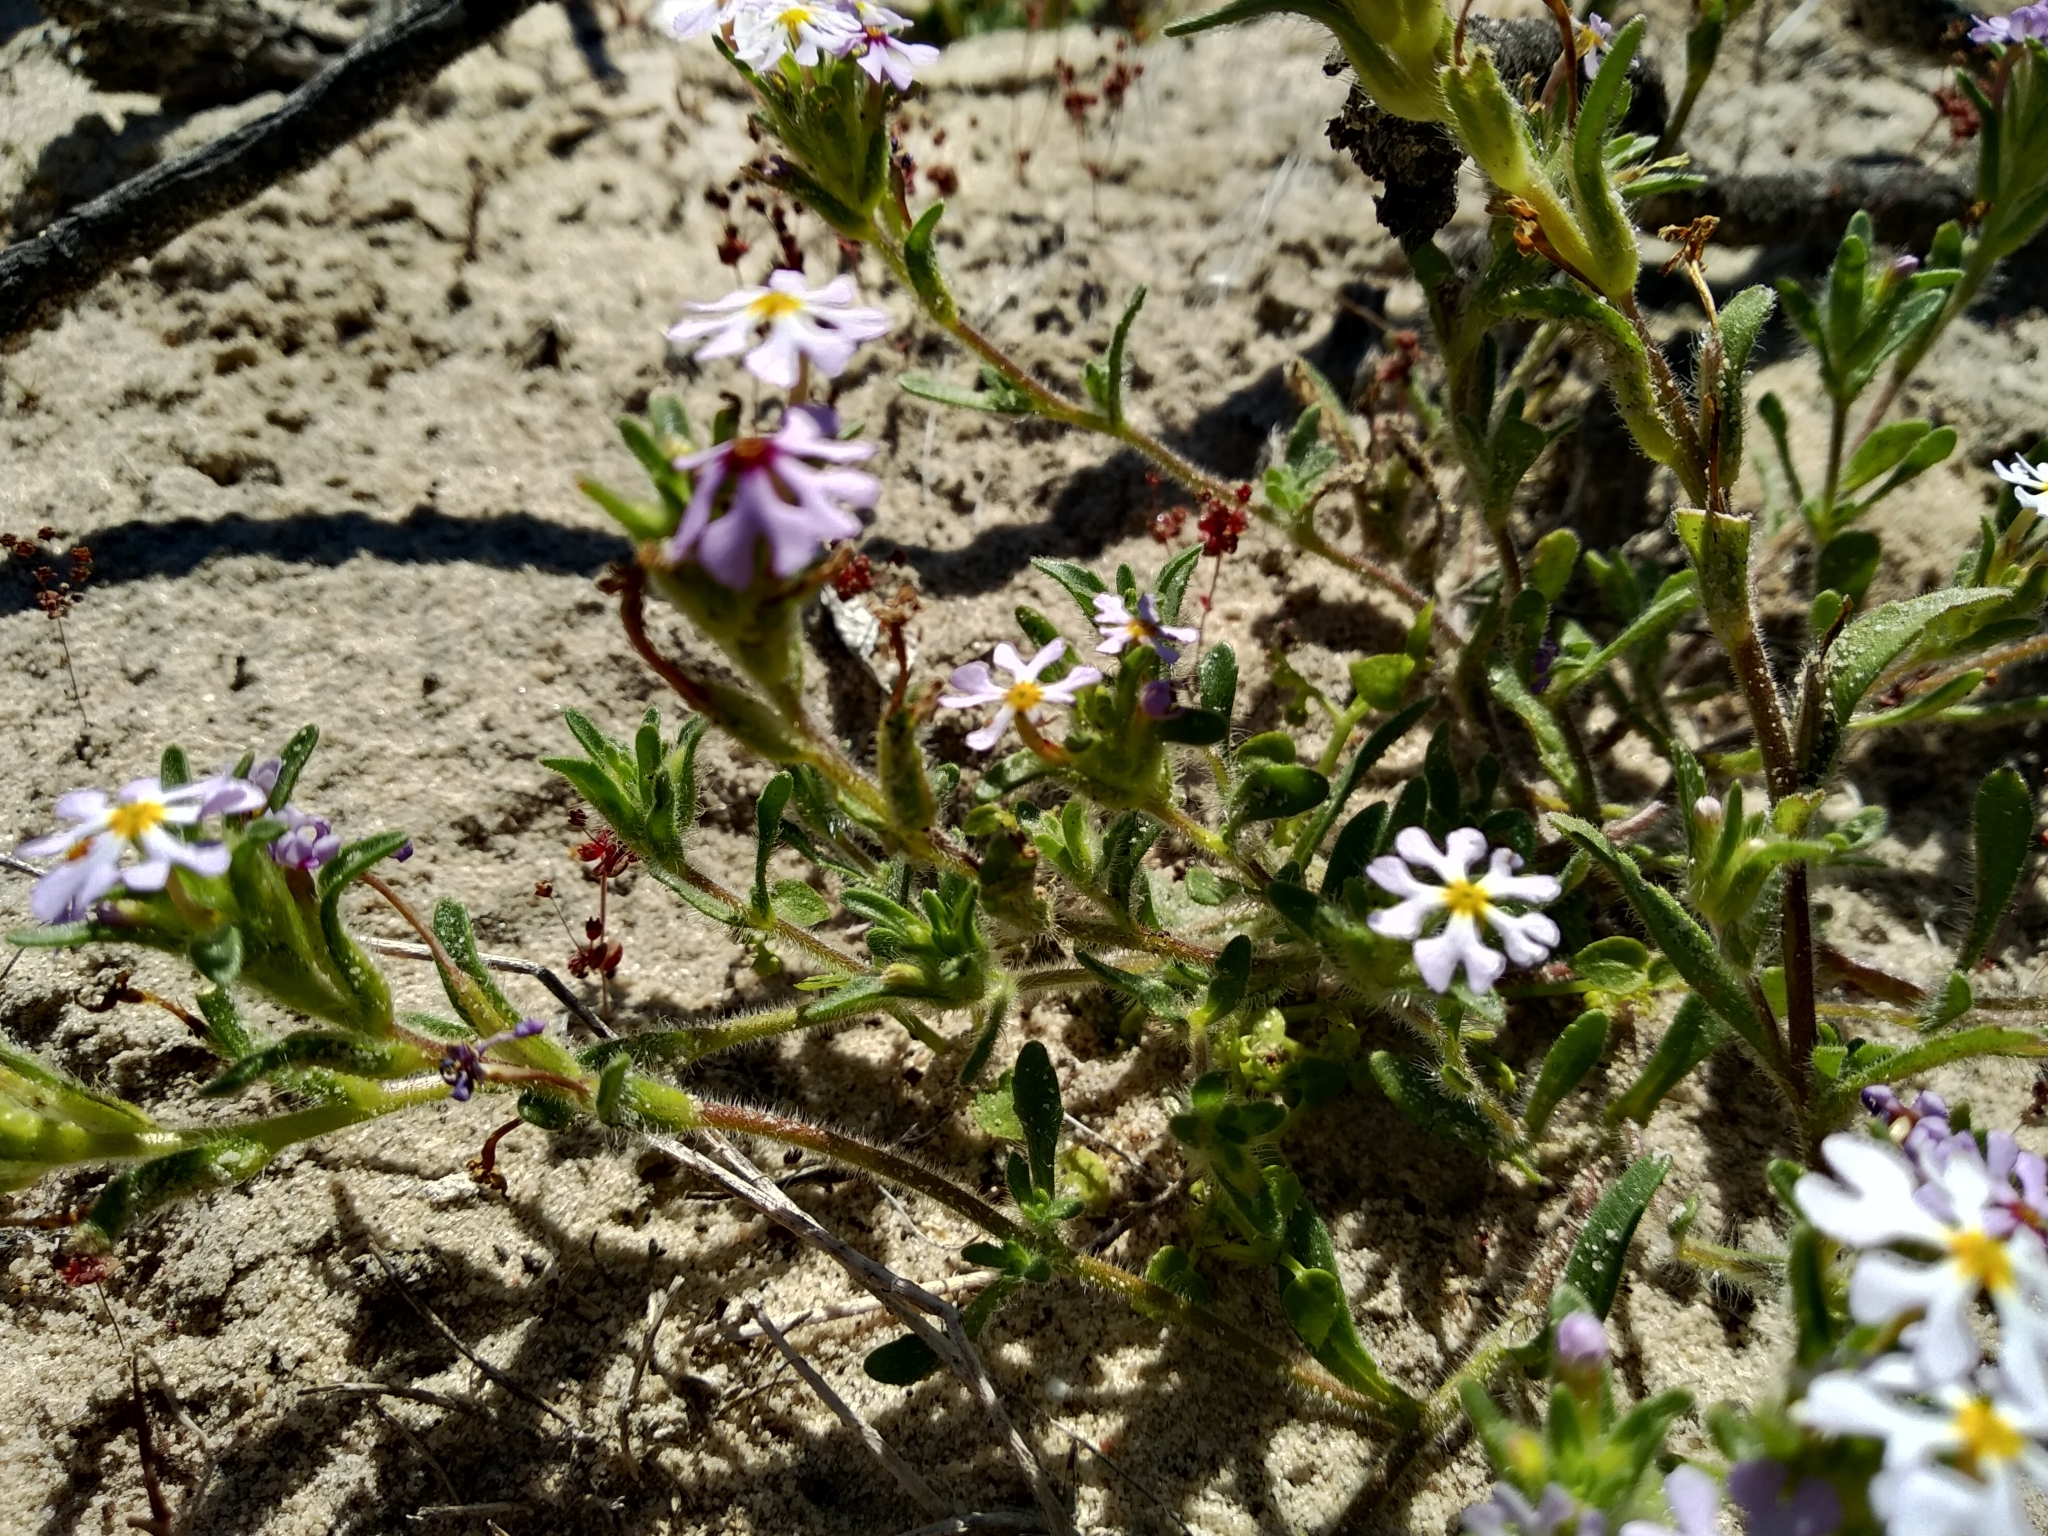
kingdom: Plantae
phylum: Tracheophyta
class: Magnoliopsida
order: Lamiales
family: Scrophulariaceae
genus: Zaluzianskya
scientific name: Zaluzianskya affinis
